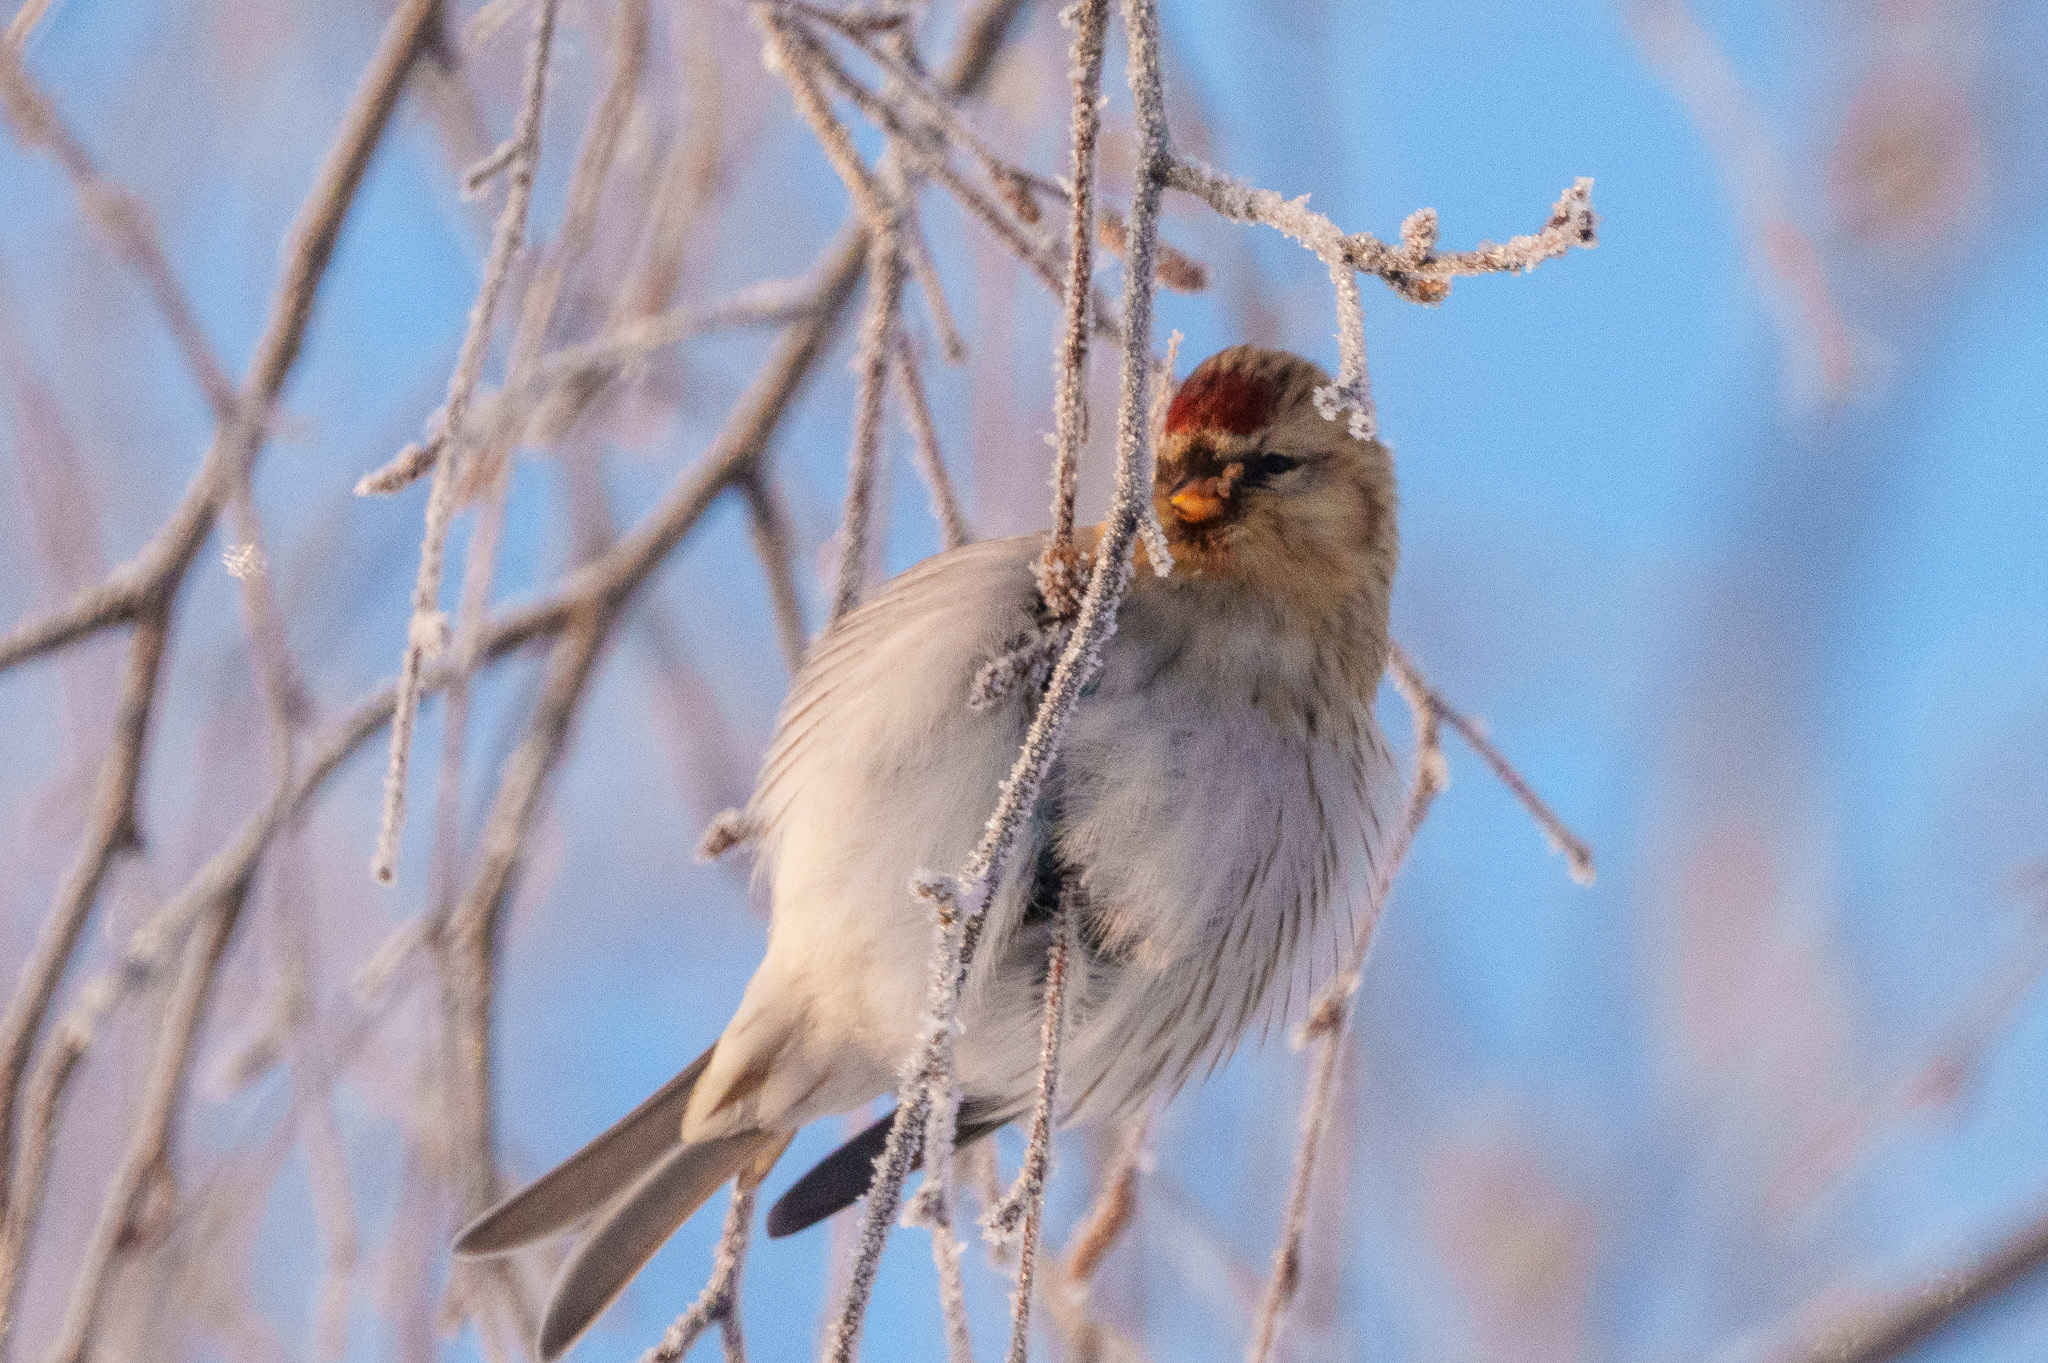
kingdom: Animalia
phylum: Chordata
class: Aves
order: Passeriformes
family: Fringillidae
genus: Acanthis
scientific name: Acanthis flammea
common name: Common redpoll
